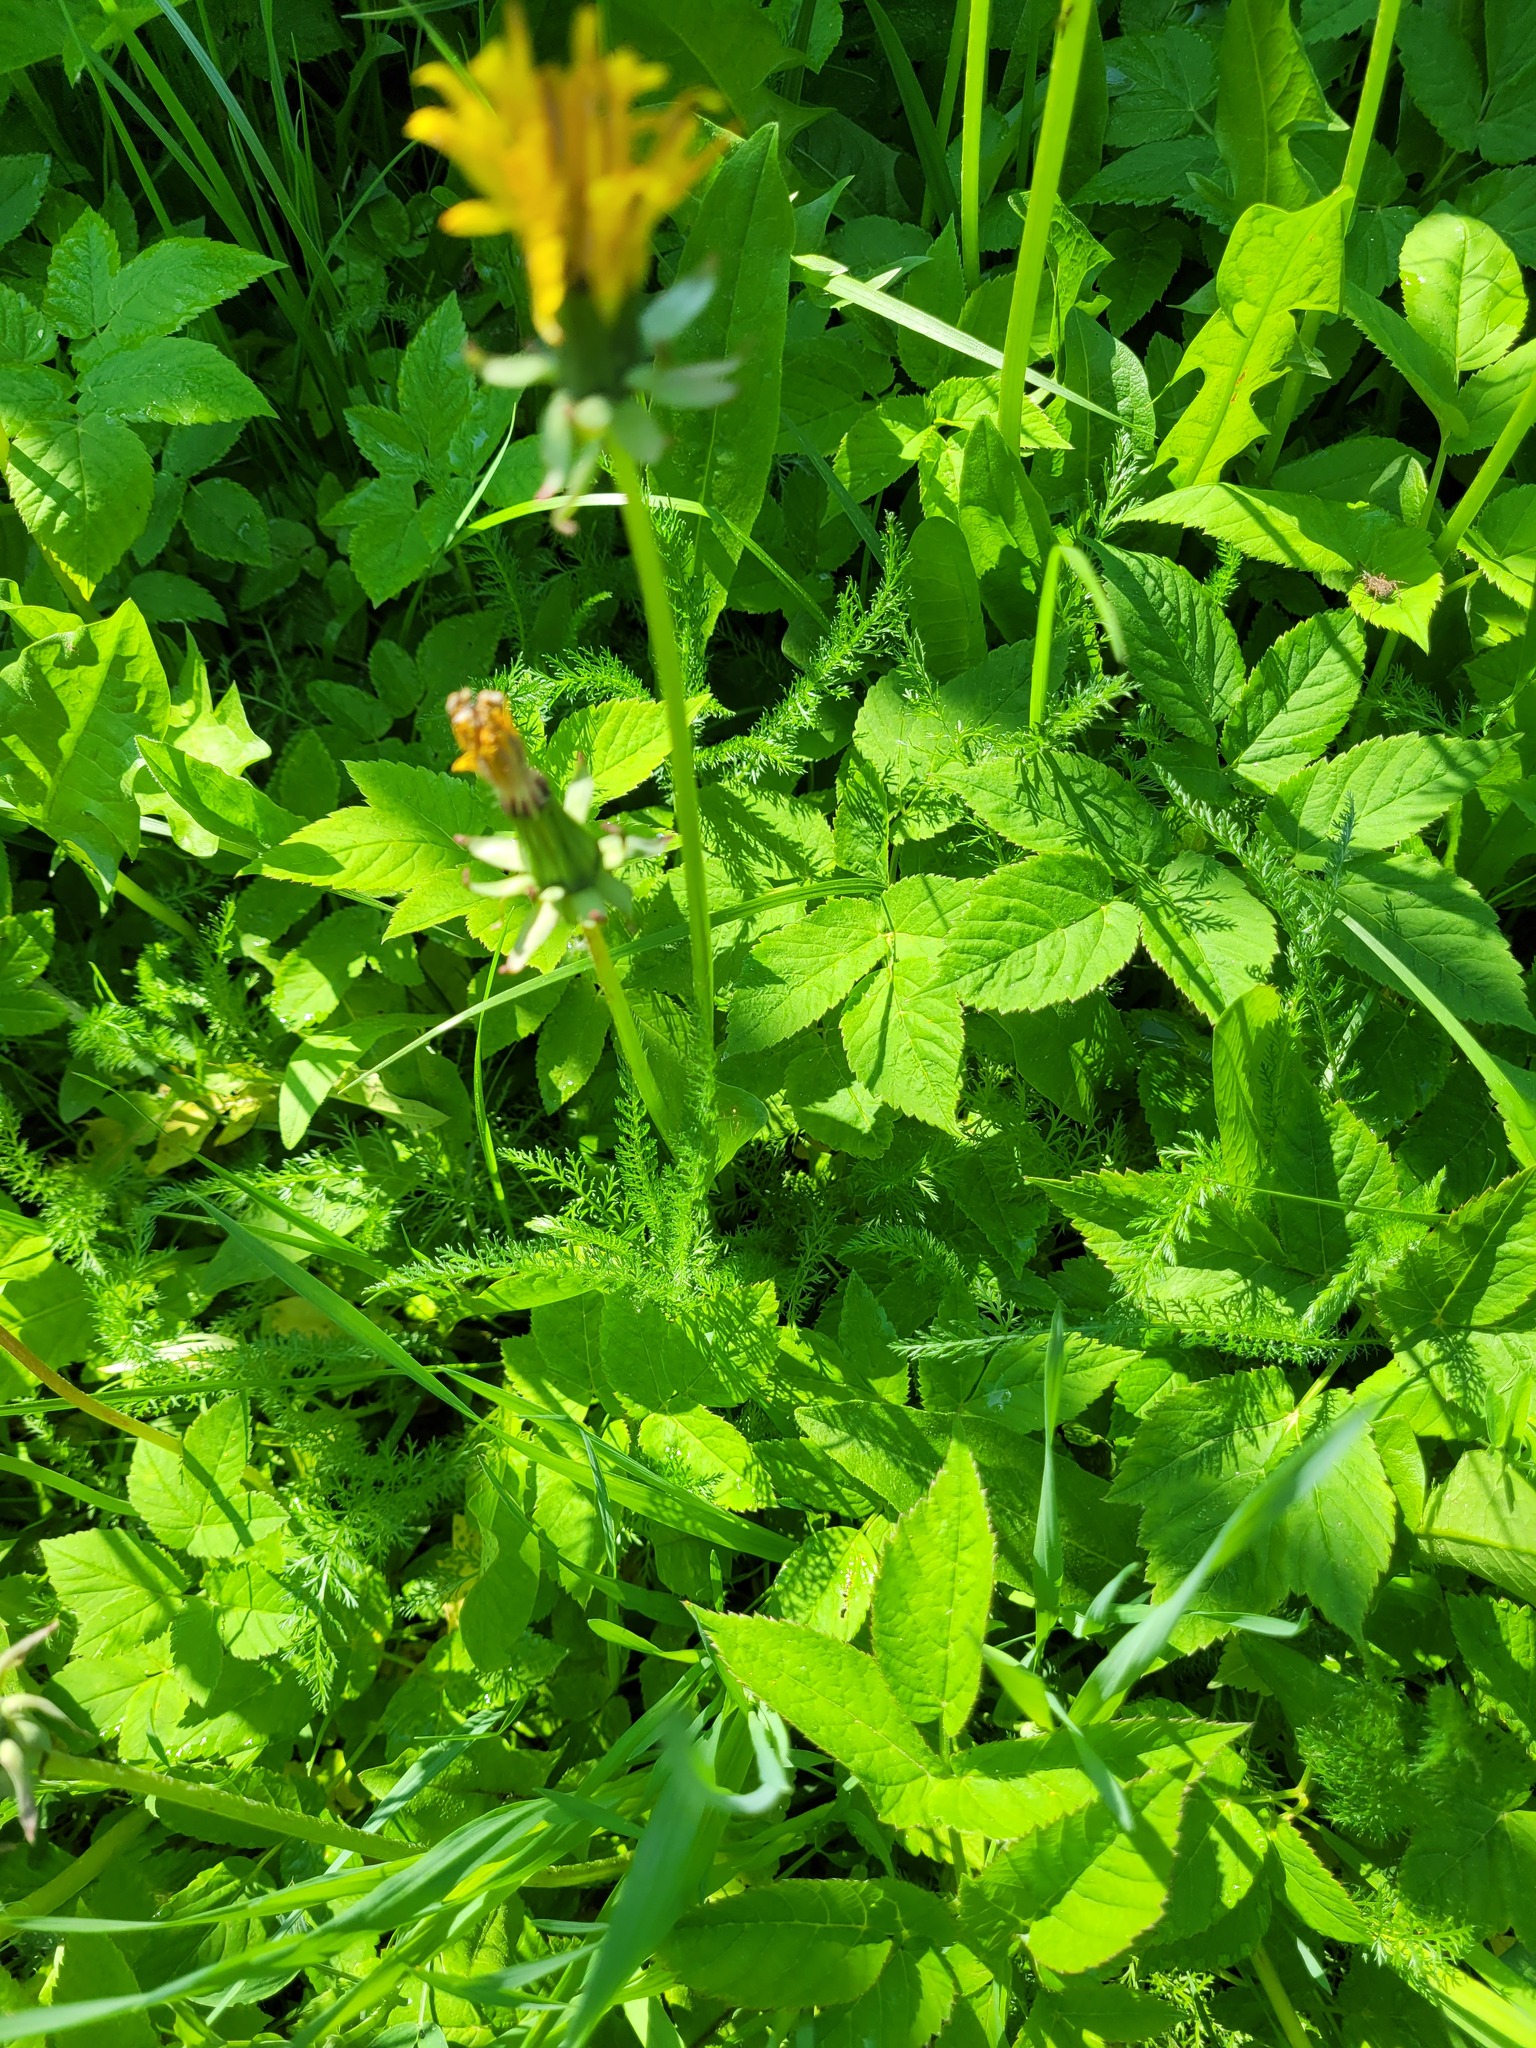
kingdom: Plantae
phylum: Tracheophyta
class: Magnoliopsida
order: Asterales
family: Asteraceae
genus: Achillea
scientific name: Achillea millefolium
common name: Yarrow
